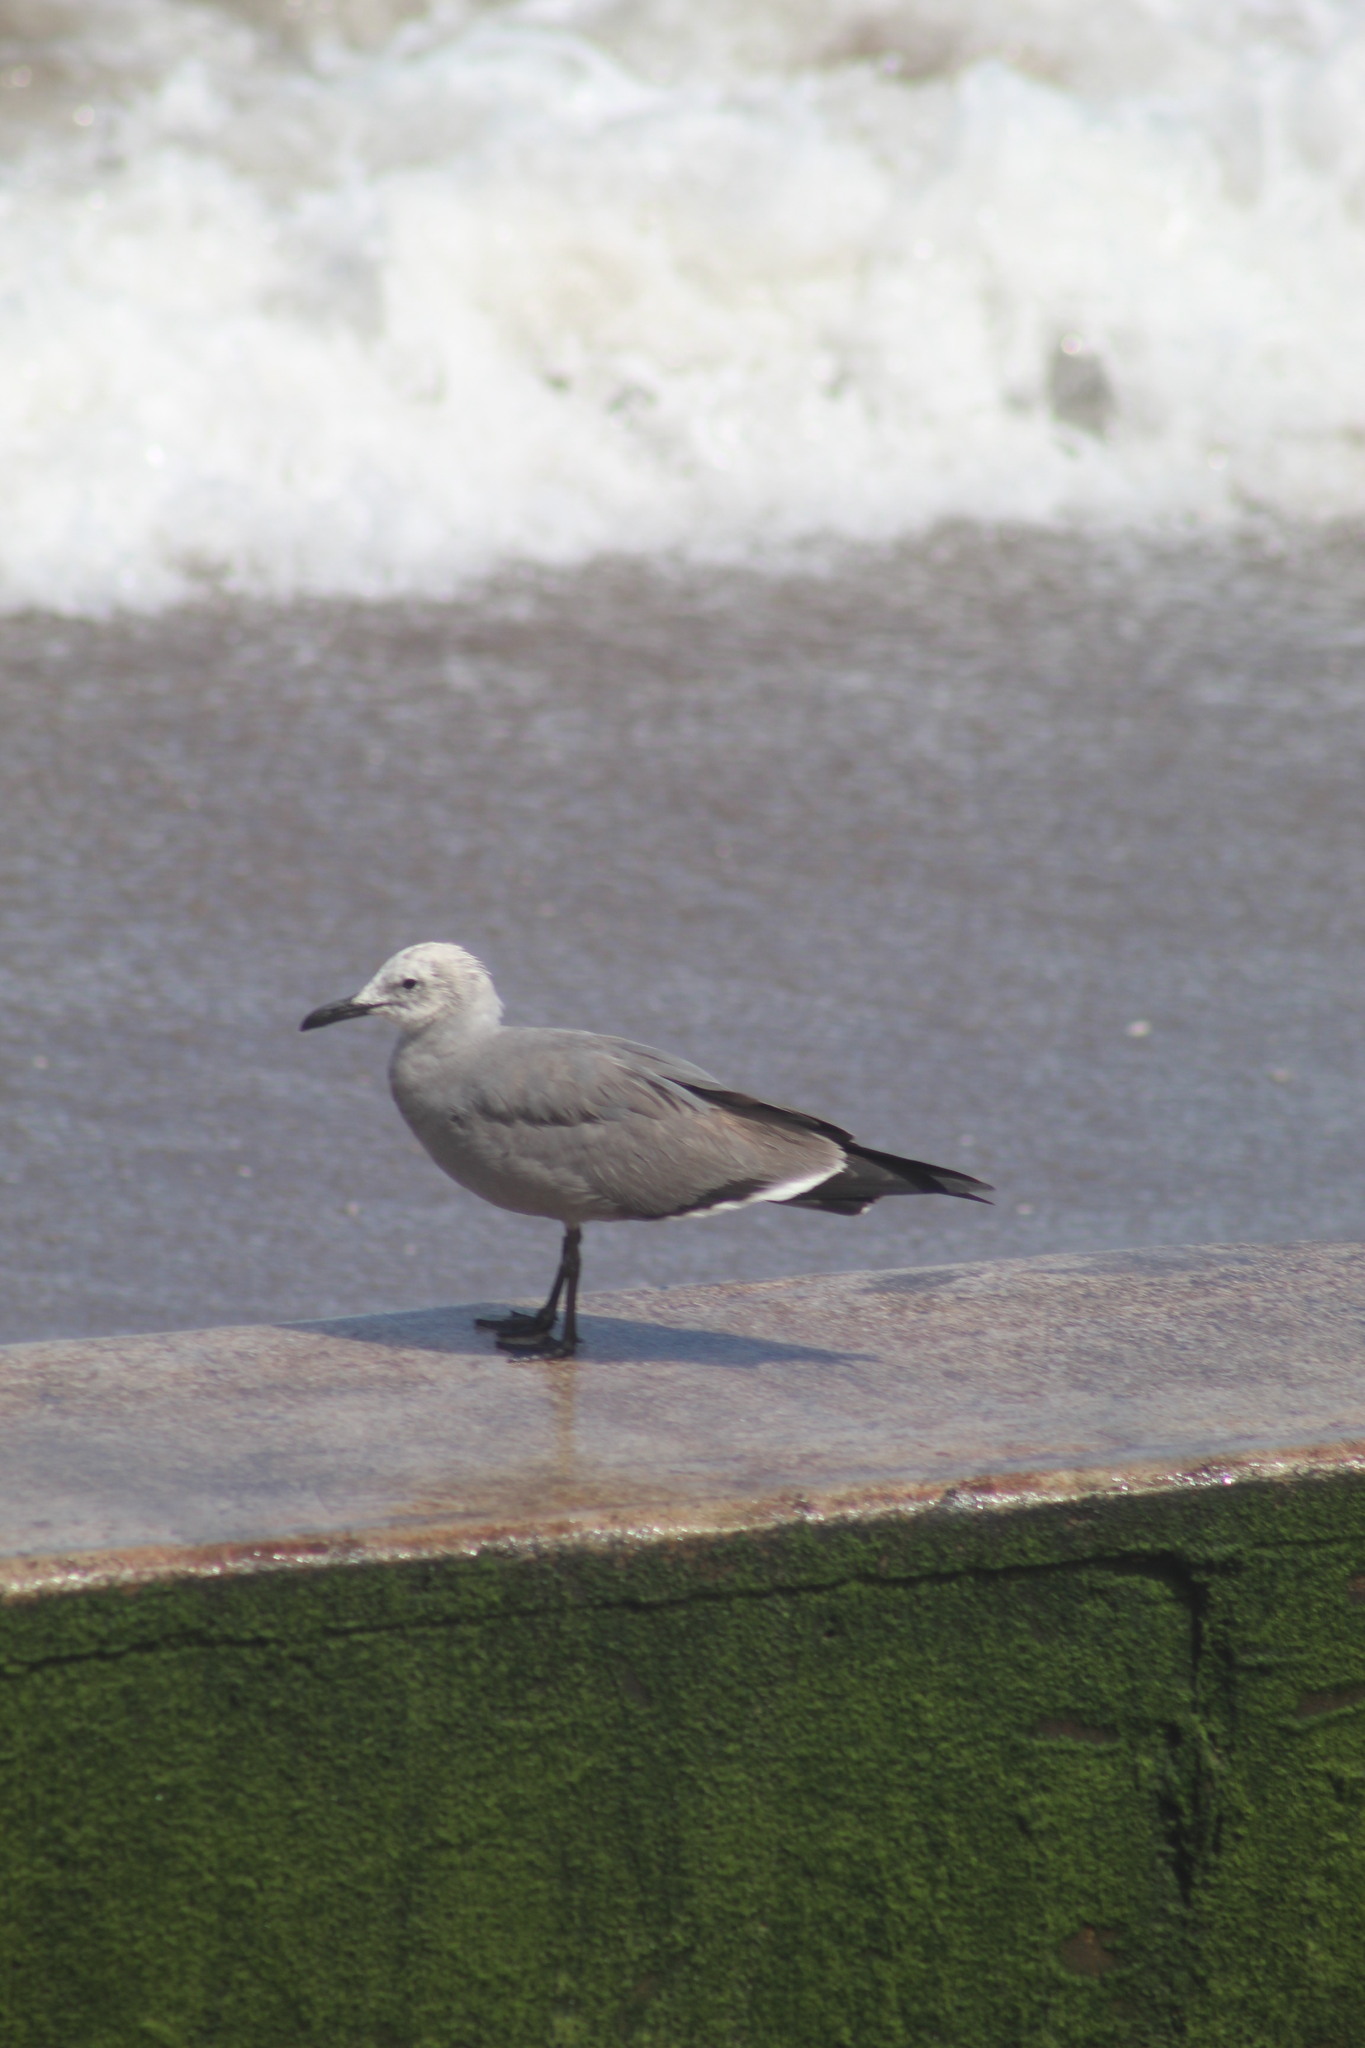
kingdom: Animalia
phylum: Chordata
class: Aves
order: Charadriiformes
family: Laridae
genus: Leucophaeus
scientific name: Leucophaeus modestus
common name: Gray gull
